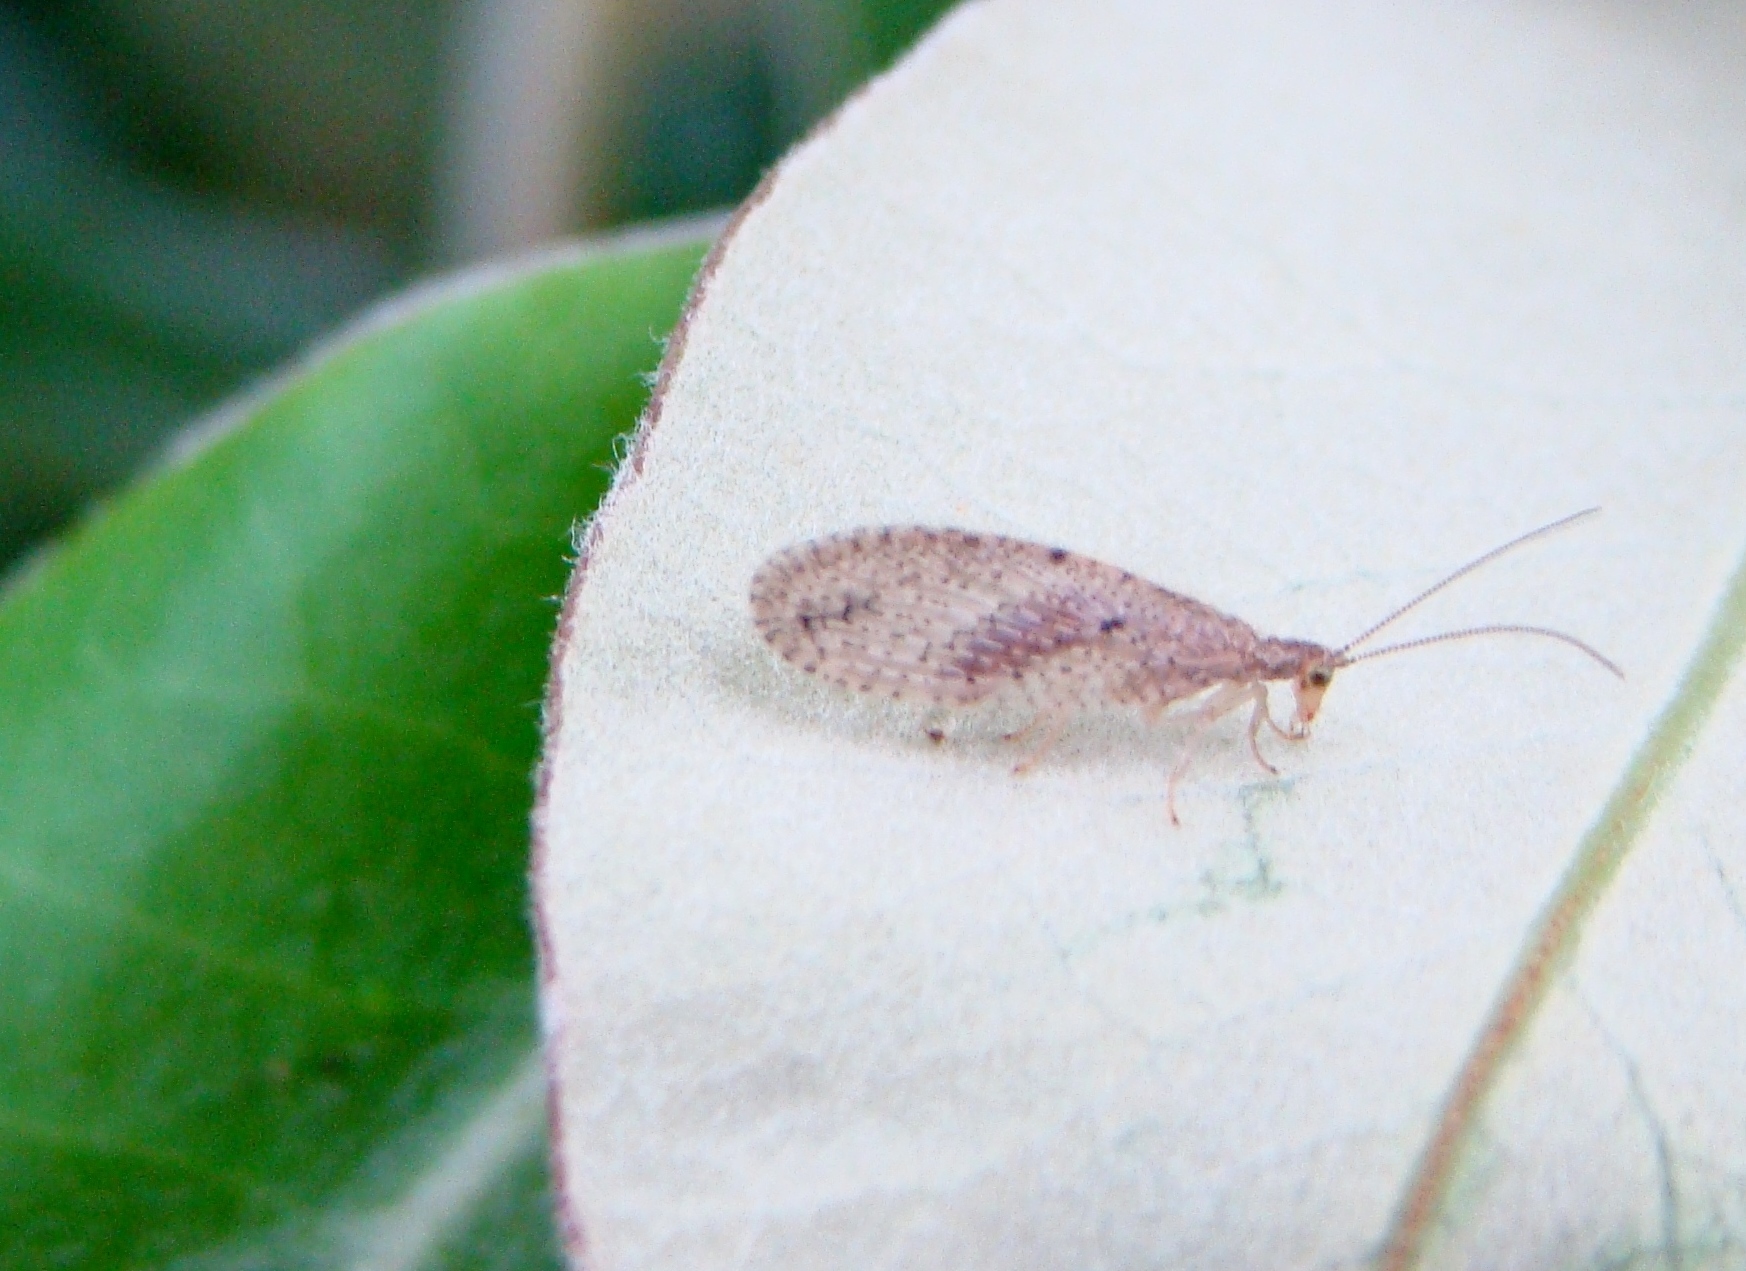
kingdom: Animalia
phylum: Arthropoda
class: Insecta
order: Neuroptera
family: Hemerobiidae
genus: Micromus
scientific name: Micromus tasmaniae
